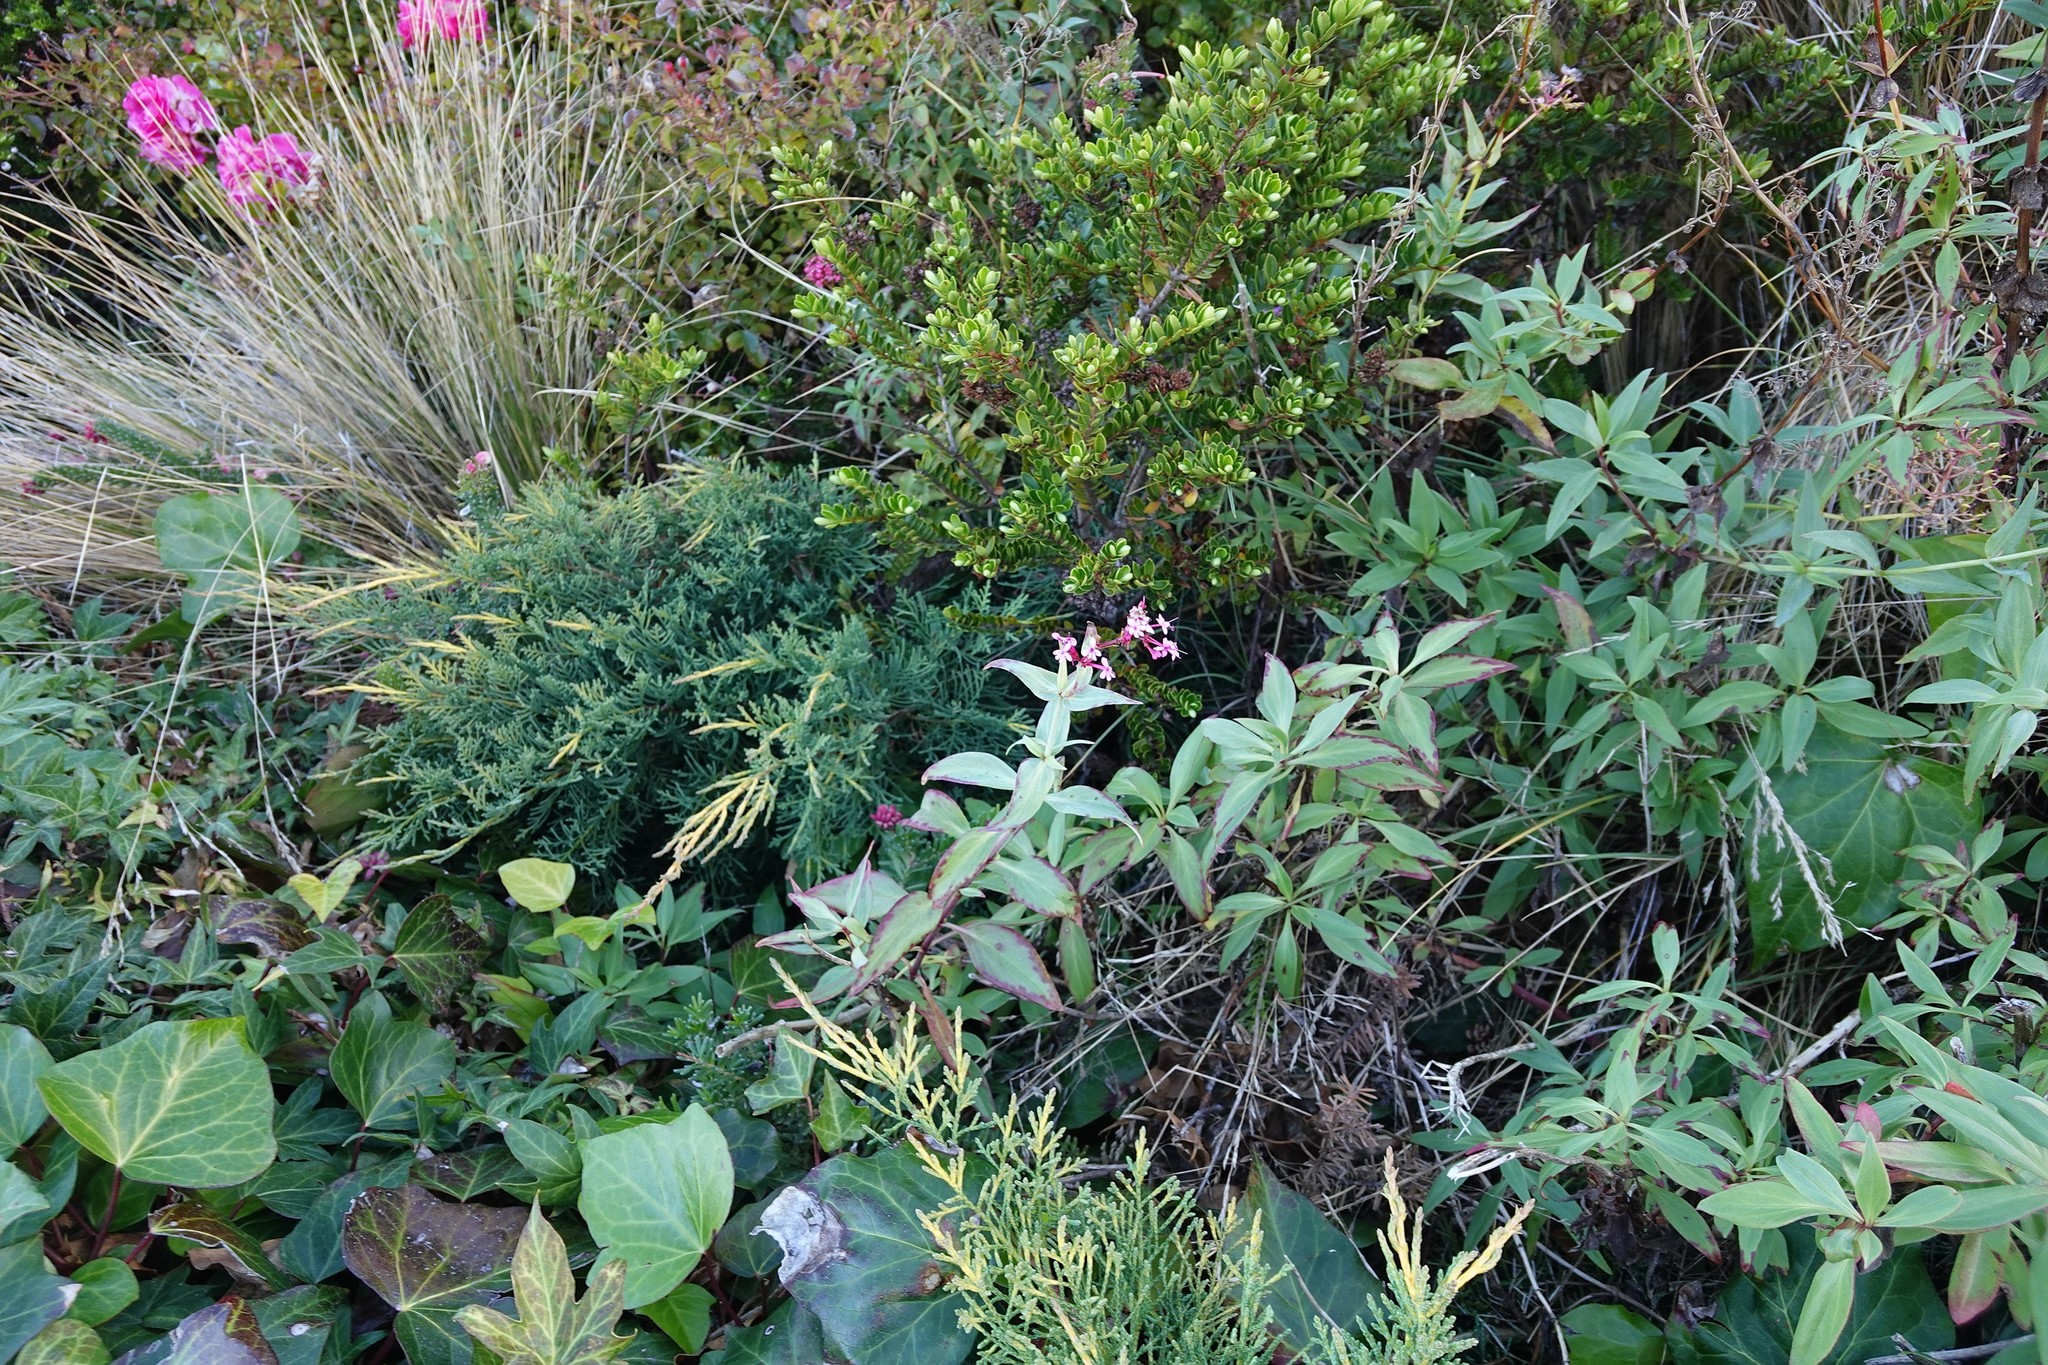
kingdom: Plantae
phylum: Tracheophyta
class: Magnoliopsida
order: Dipsacales
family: Caprifoliaceae
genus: Centranthus
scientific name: Centranthus ruber
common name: Red valerian
